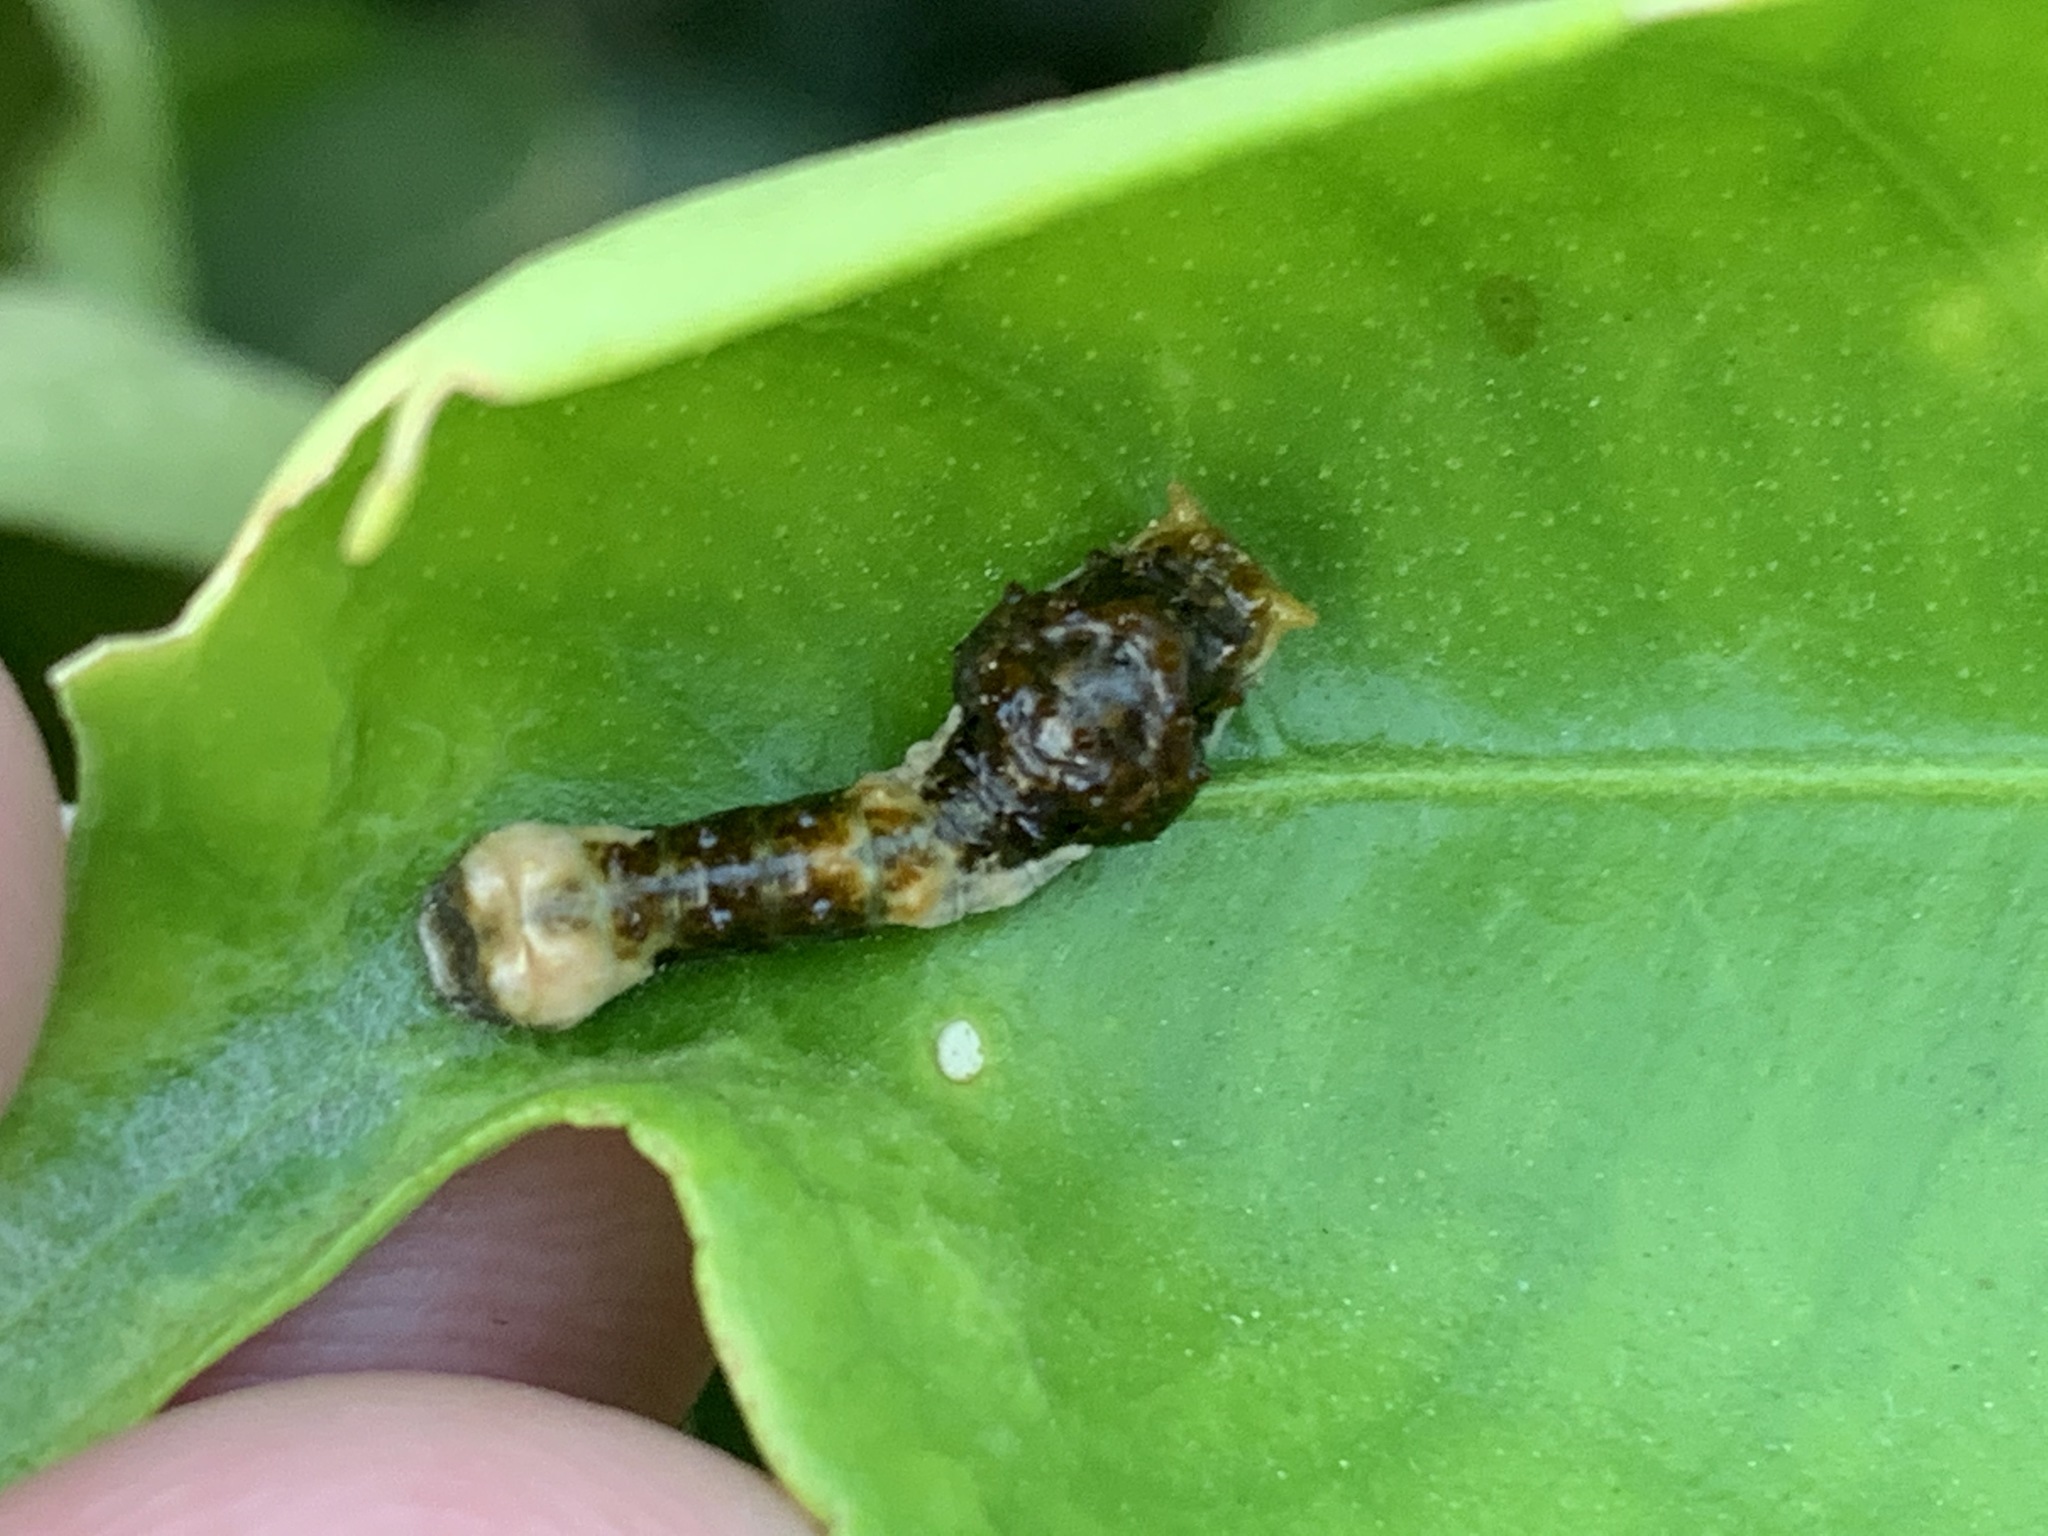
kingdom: Animalia
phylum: Arthropoda
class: Insecta
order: Lepidoptera
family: Papilionidae
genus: Papilio
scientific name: Papilio rumiko
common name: Western giant swallowtail
